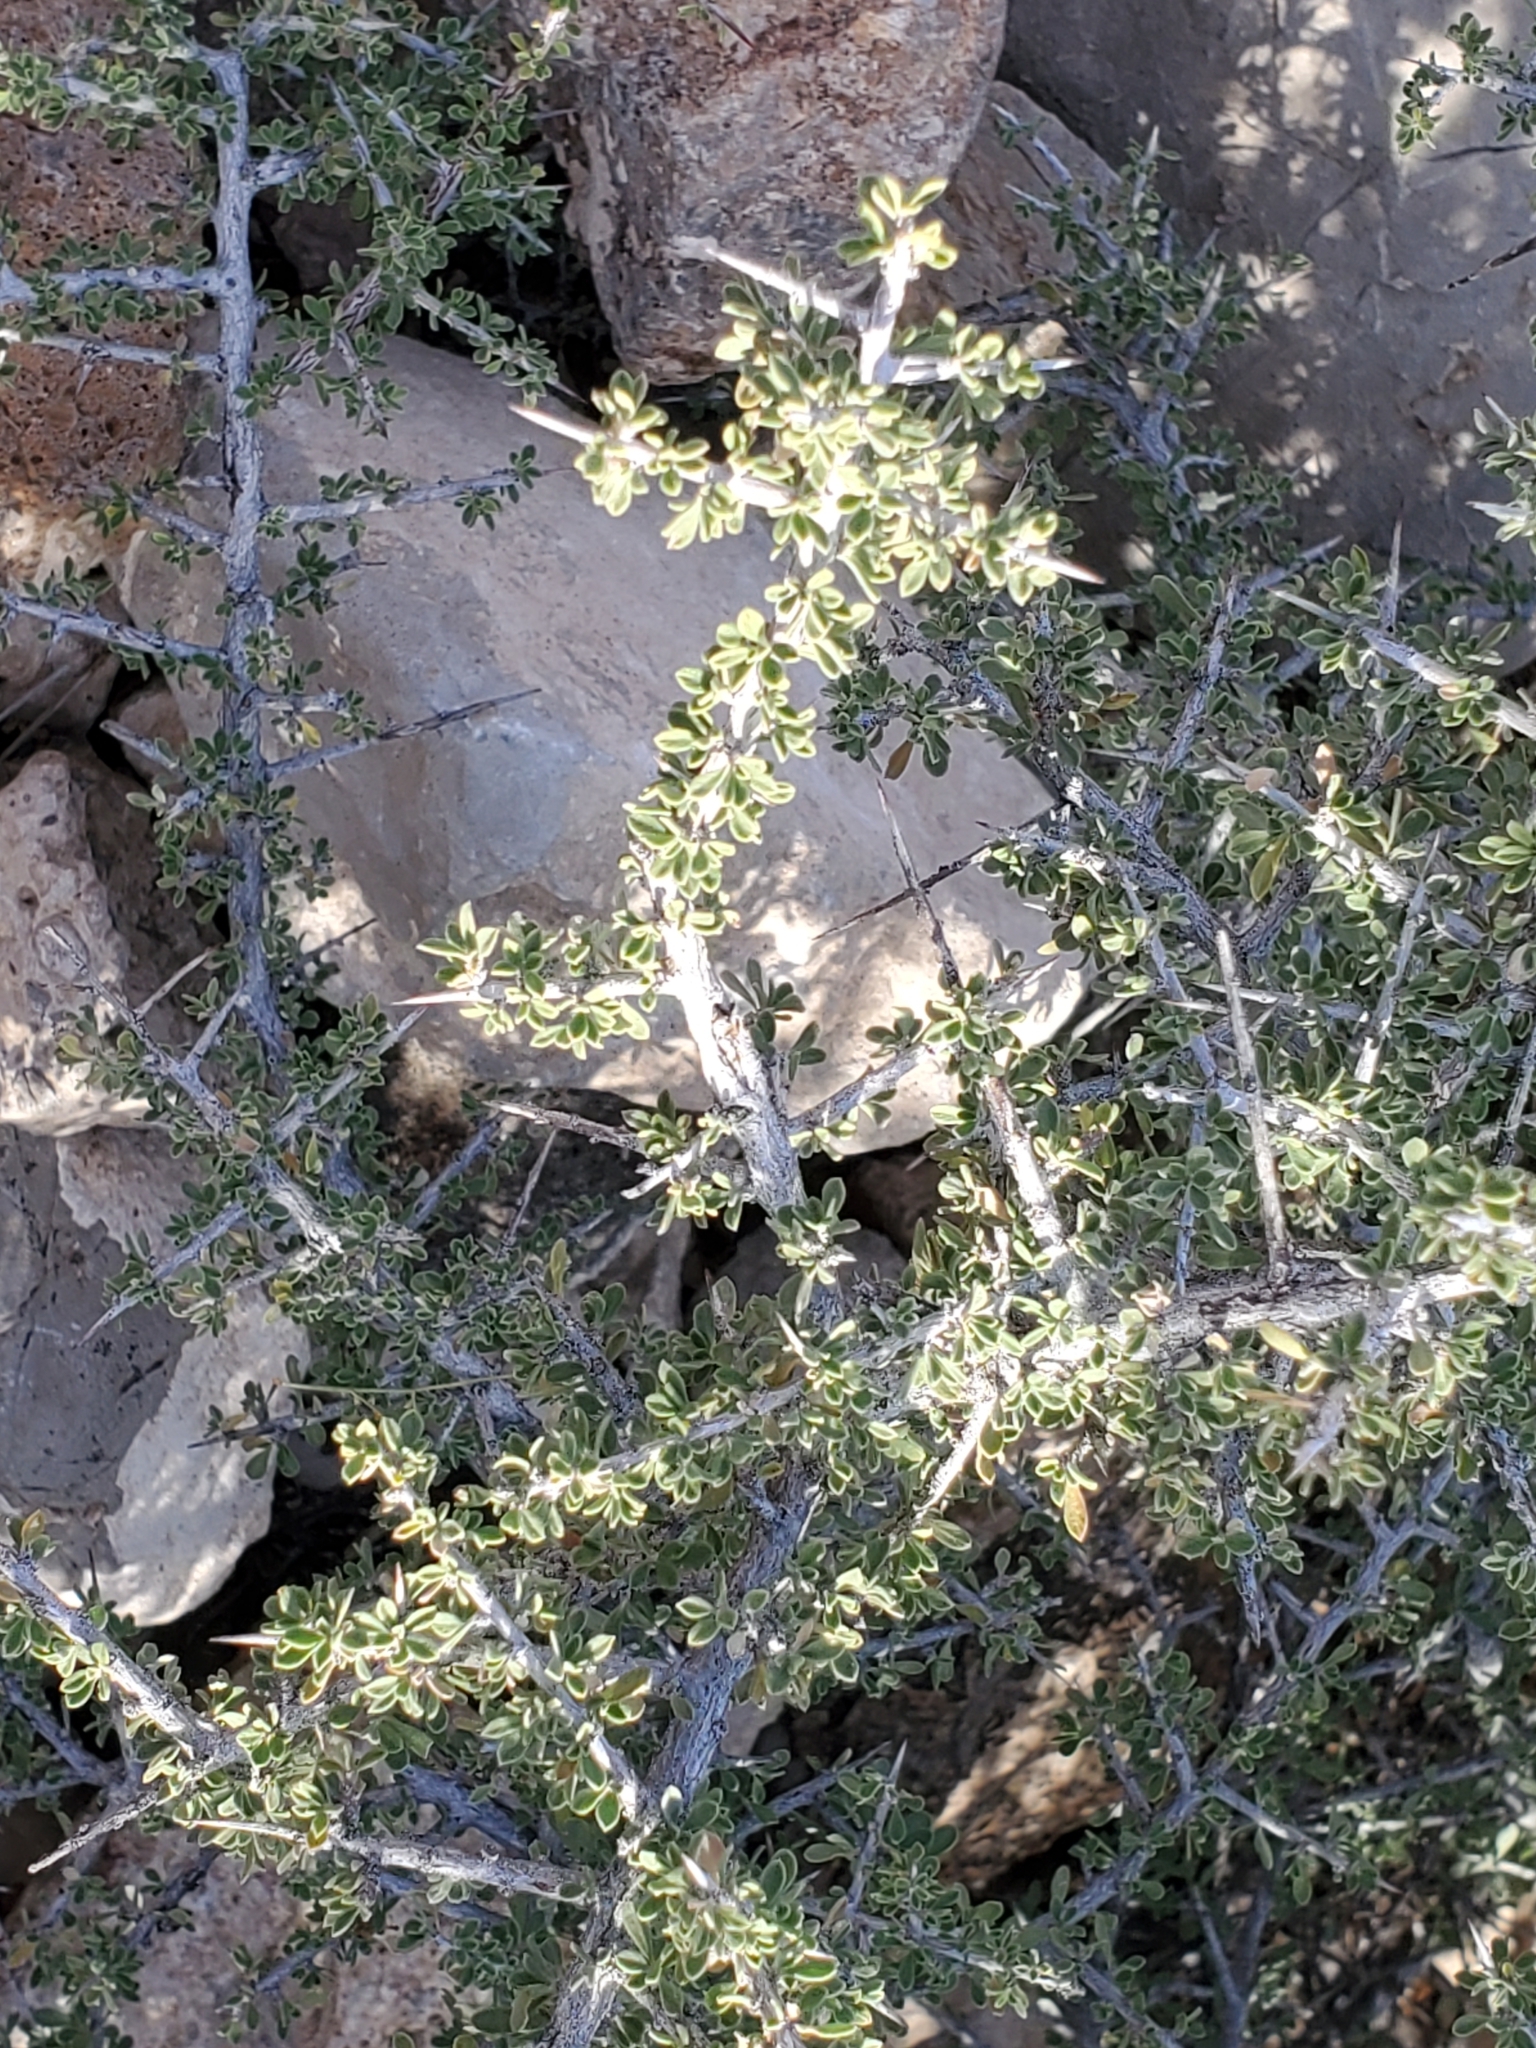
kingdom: Plantae
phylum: Tracheophyta
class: Magnoliopsida
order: Rosales
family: Rhamnaceae
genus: Condalia
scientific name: Condalia warnockii
